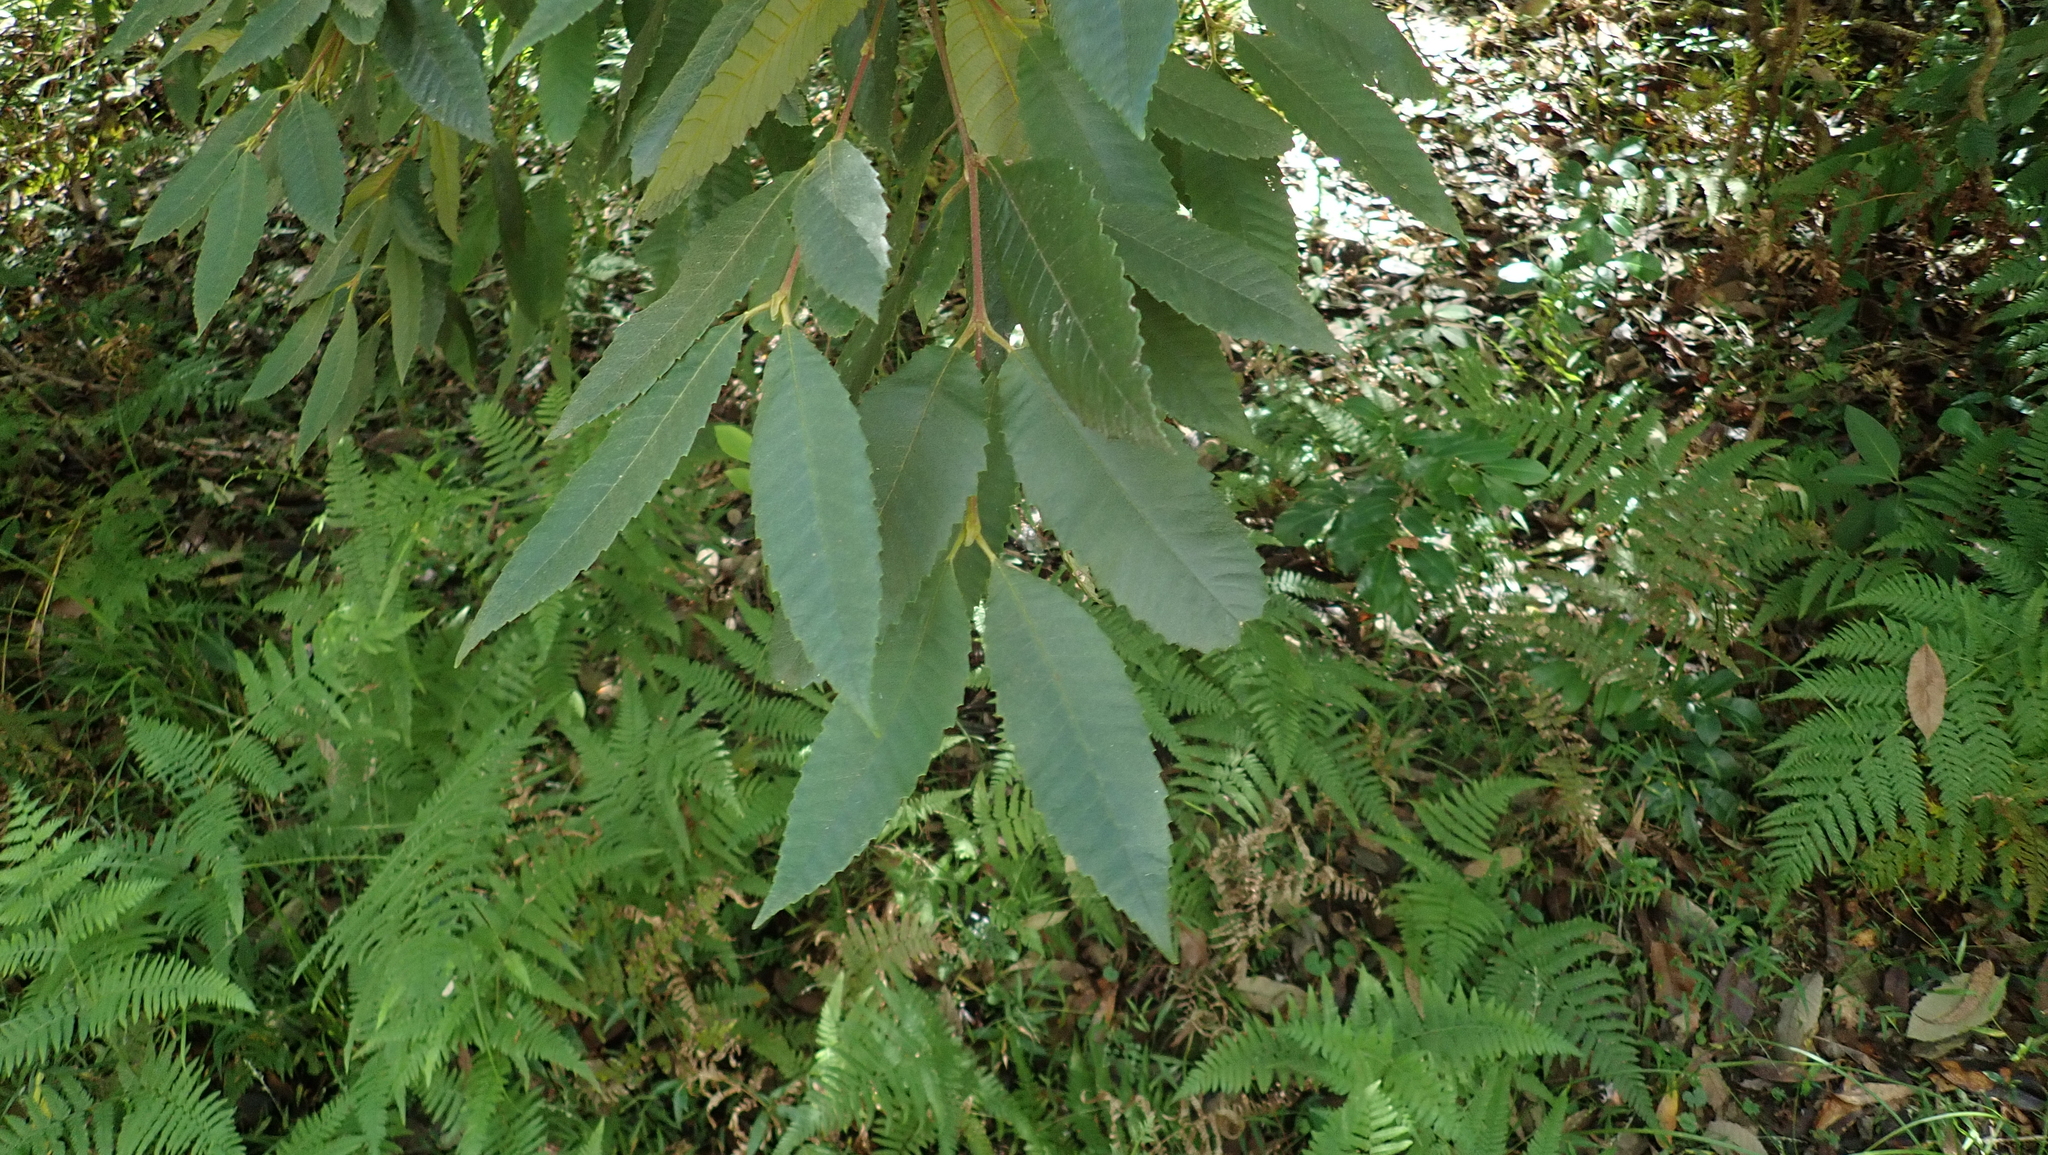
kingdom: Plantae
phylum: Tracheophyta
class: Magnoliopsida
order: Oxalidales
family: Cunoniaceae
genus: Callicoma
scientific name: Callicoma serratifolia
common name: Black wattle
